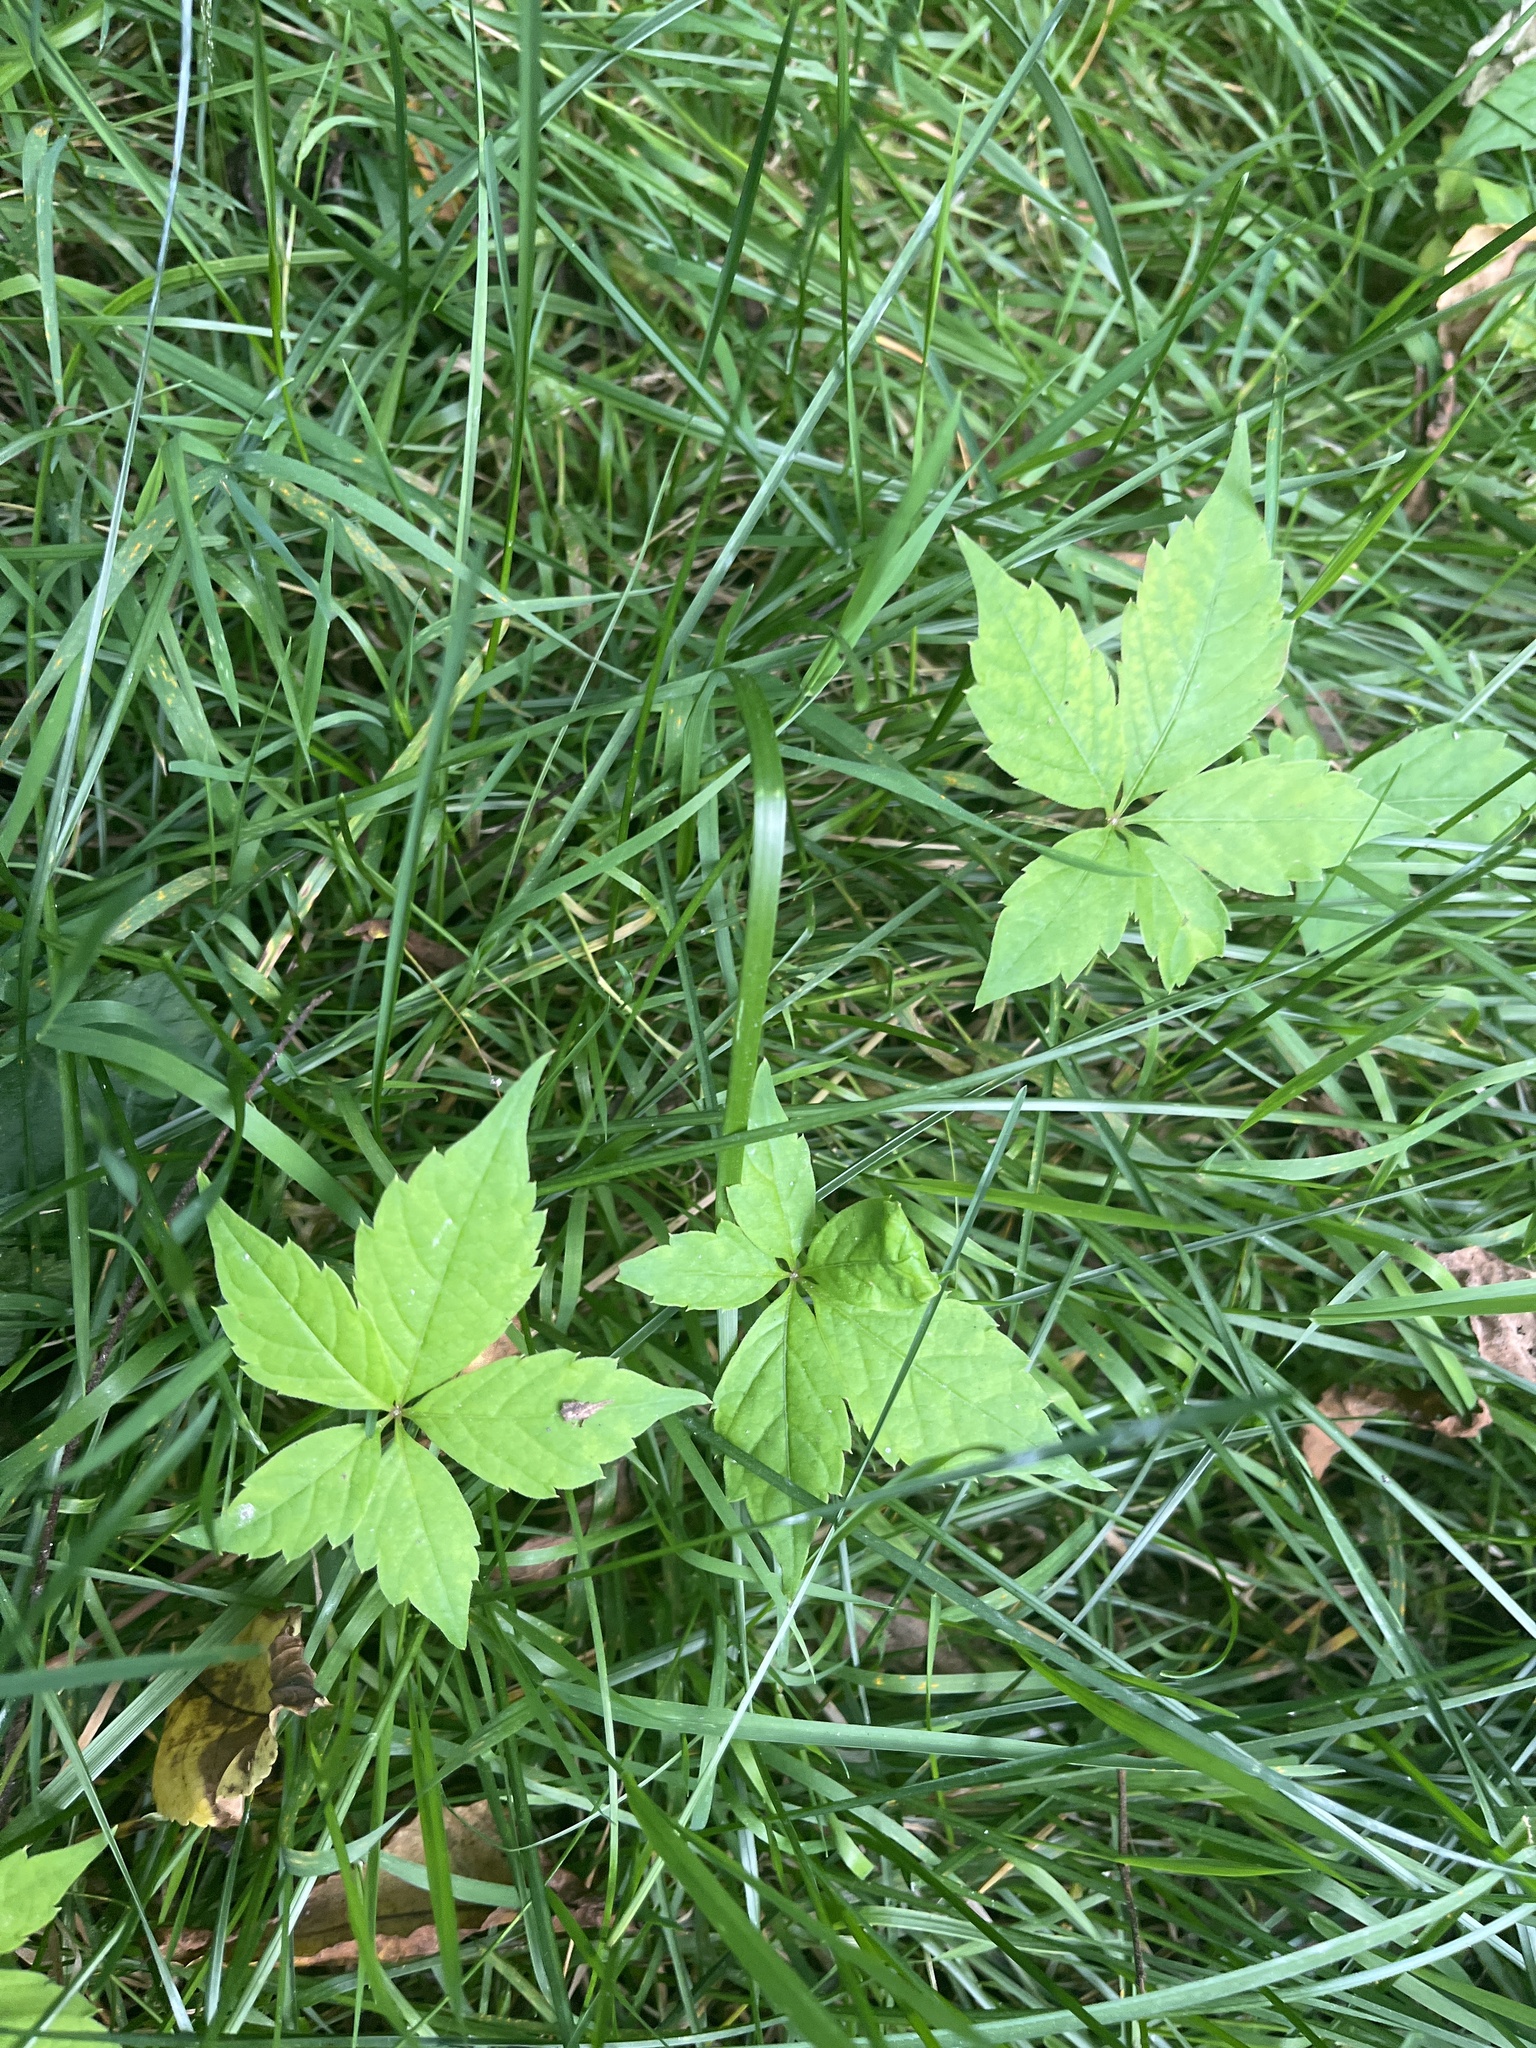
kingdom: Plantae
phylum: Tracheophyta
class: Magnoliopsida
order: Vitales
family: Vitaceae
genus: Parthenocissus
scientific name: Parthenocissus quinquefolia
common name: Virginia-creeper
